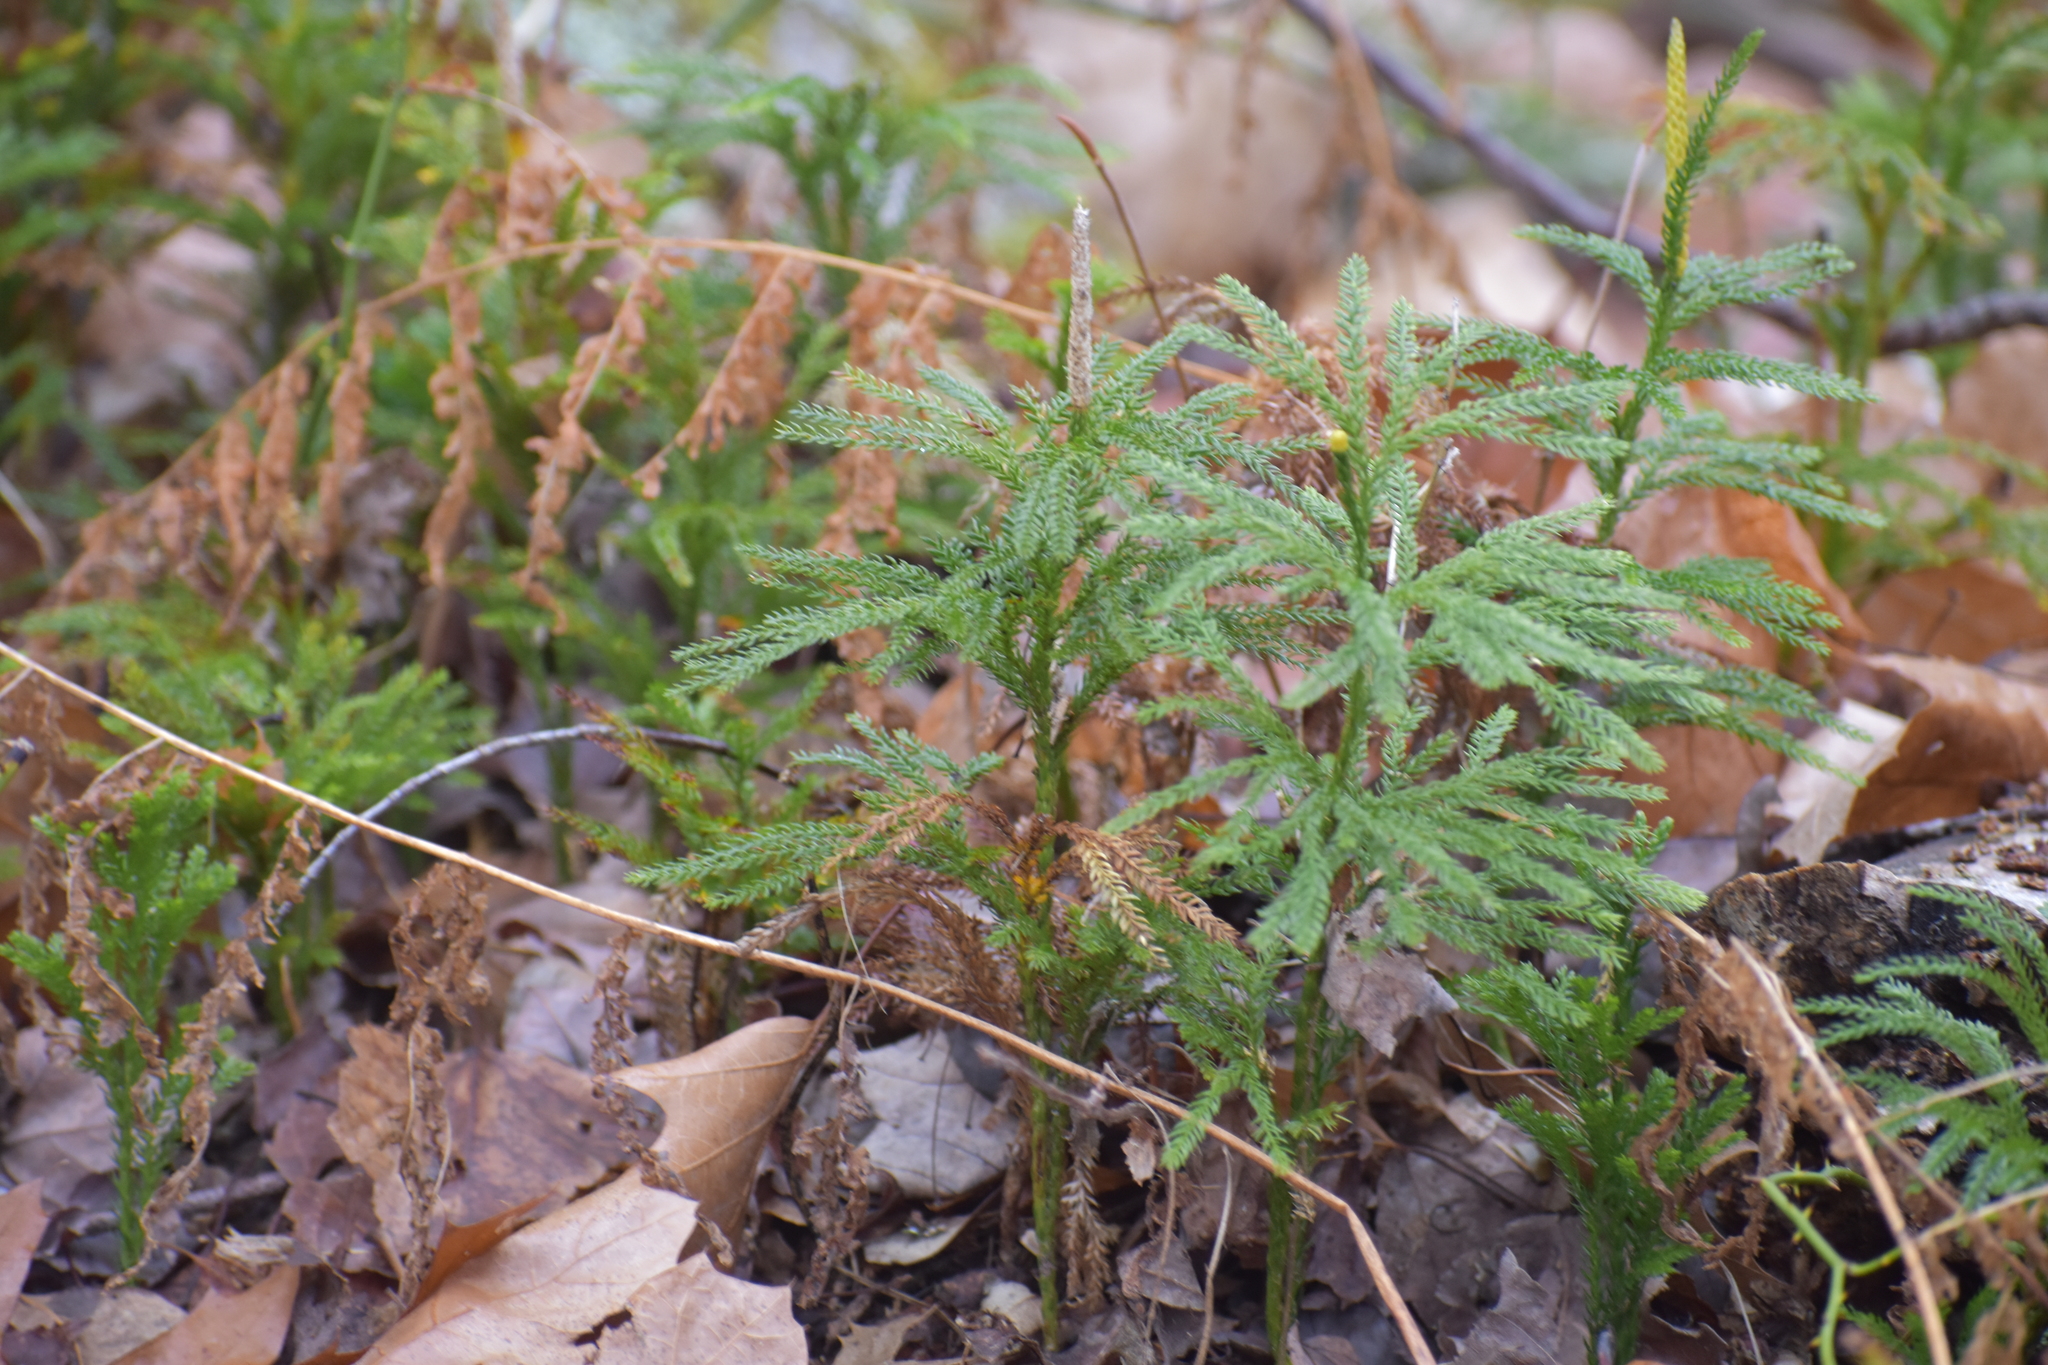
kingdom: Plantae
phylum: Tracheophyta
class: Lycopodiopsida
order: Lycopodiales
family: Lycopodiaceae
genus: Dendrolycopodium
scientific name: Dendrolycopodium obscurum
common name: Common ground-pine
